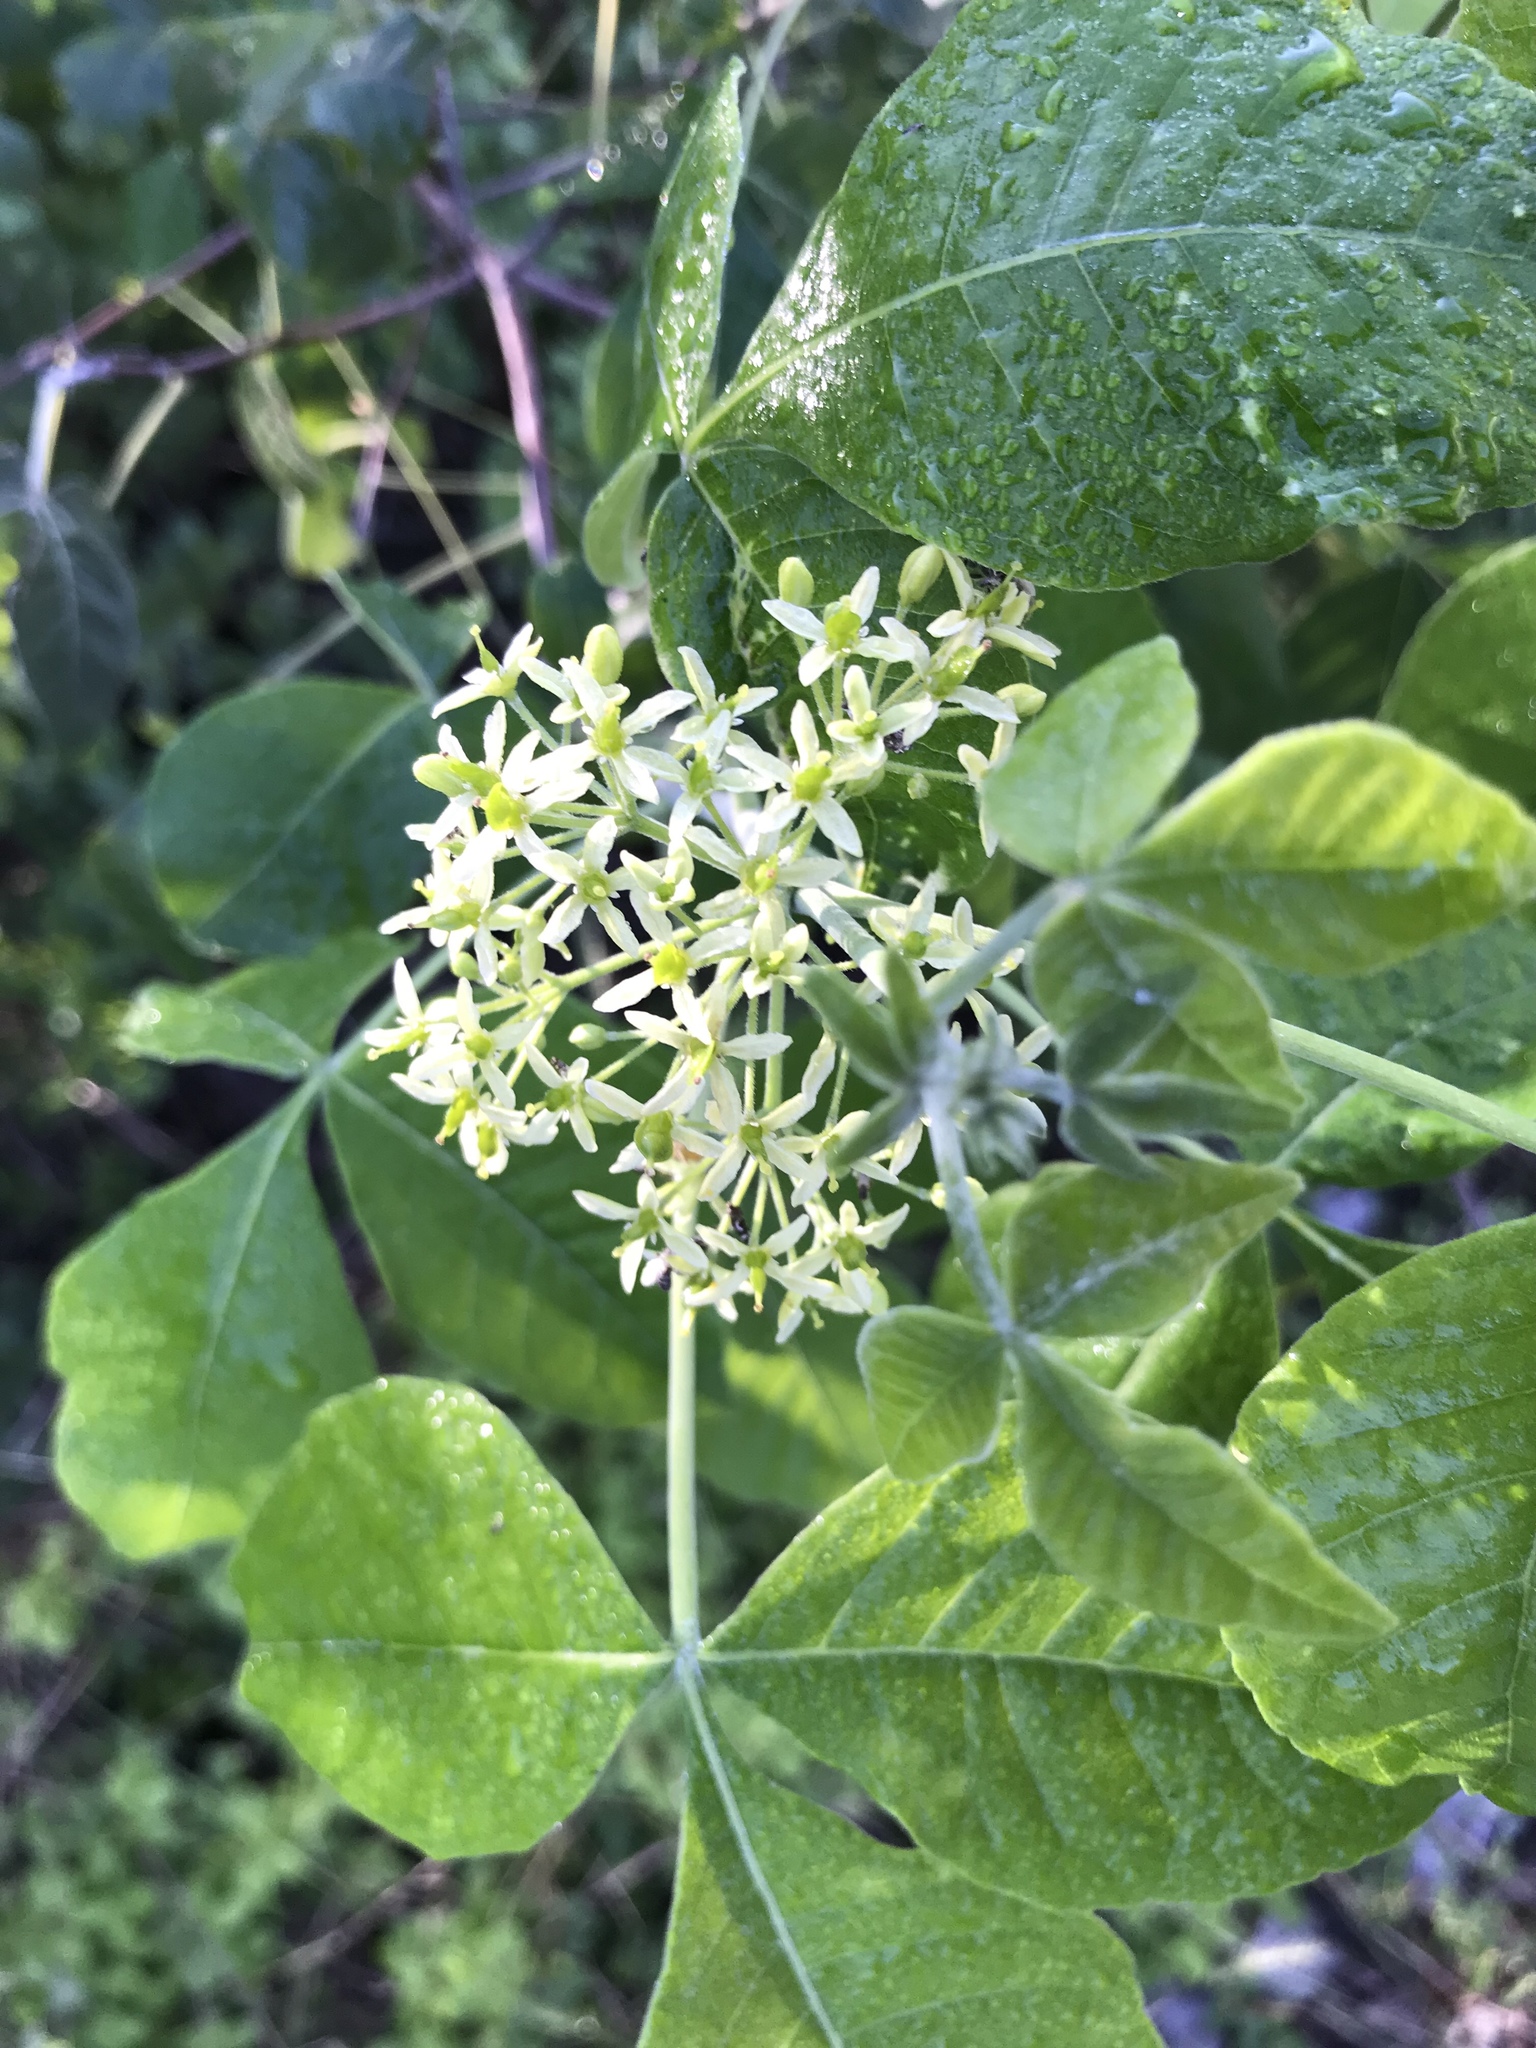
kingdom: Plantae
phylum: Tracheophyta
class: Magnoliopsida
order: Sapindales
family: Rutaceae
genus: Ptelea
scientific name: Ptelea trifoliata
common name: Common hop-tree
